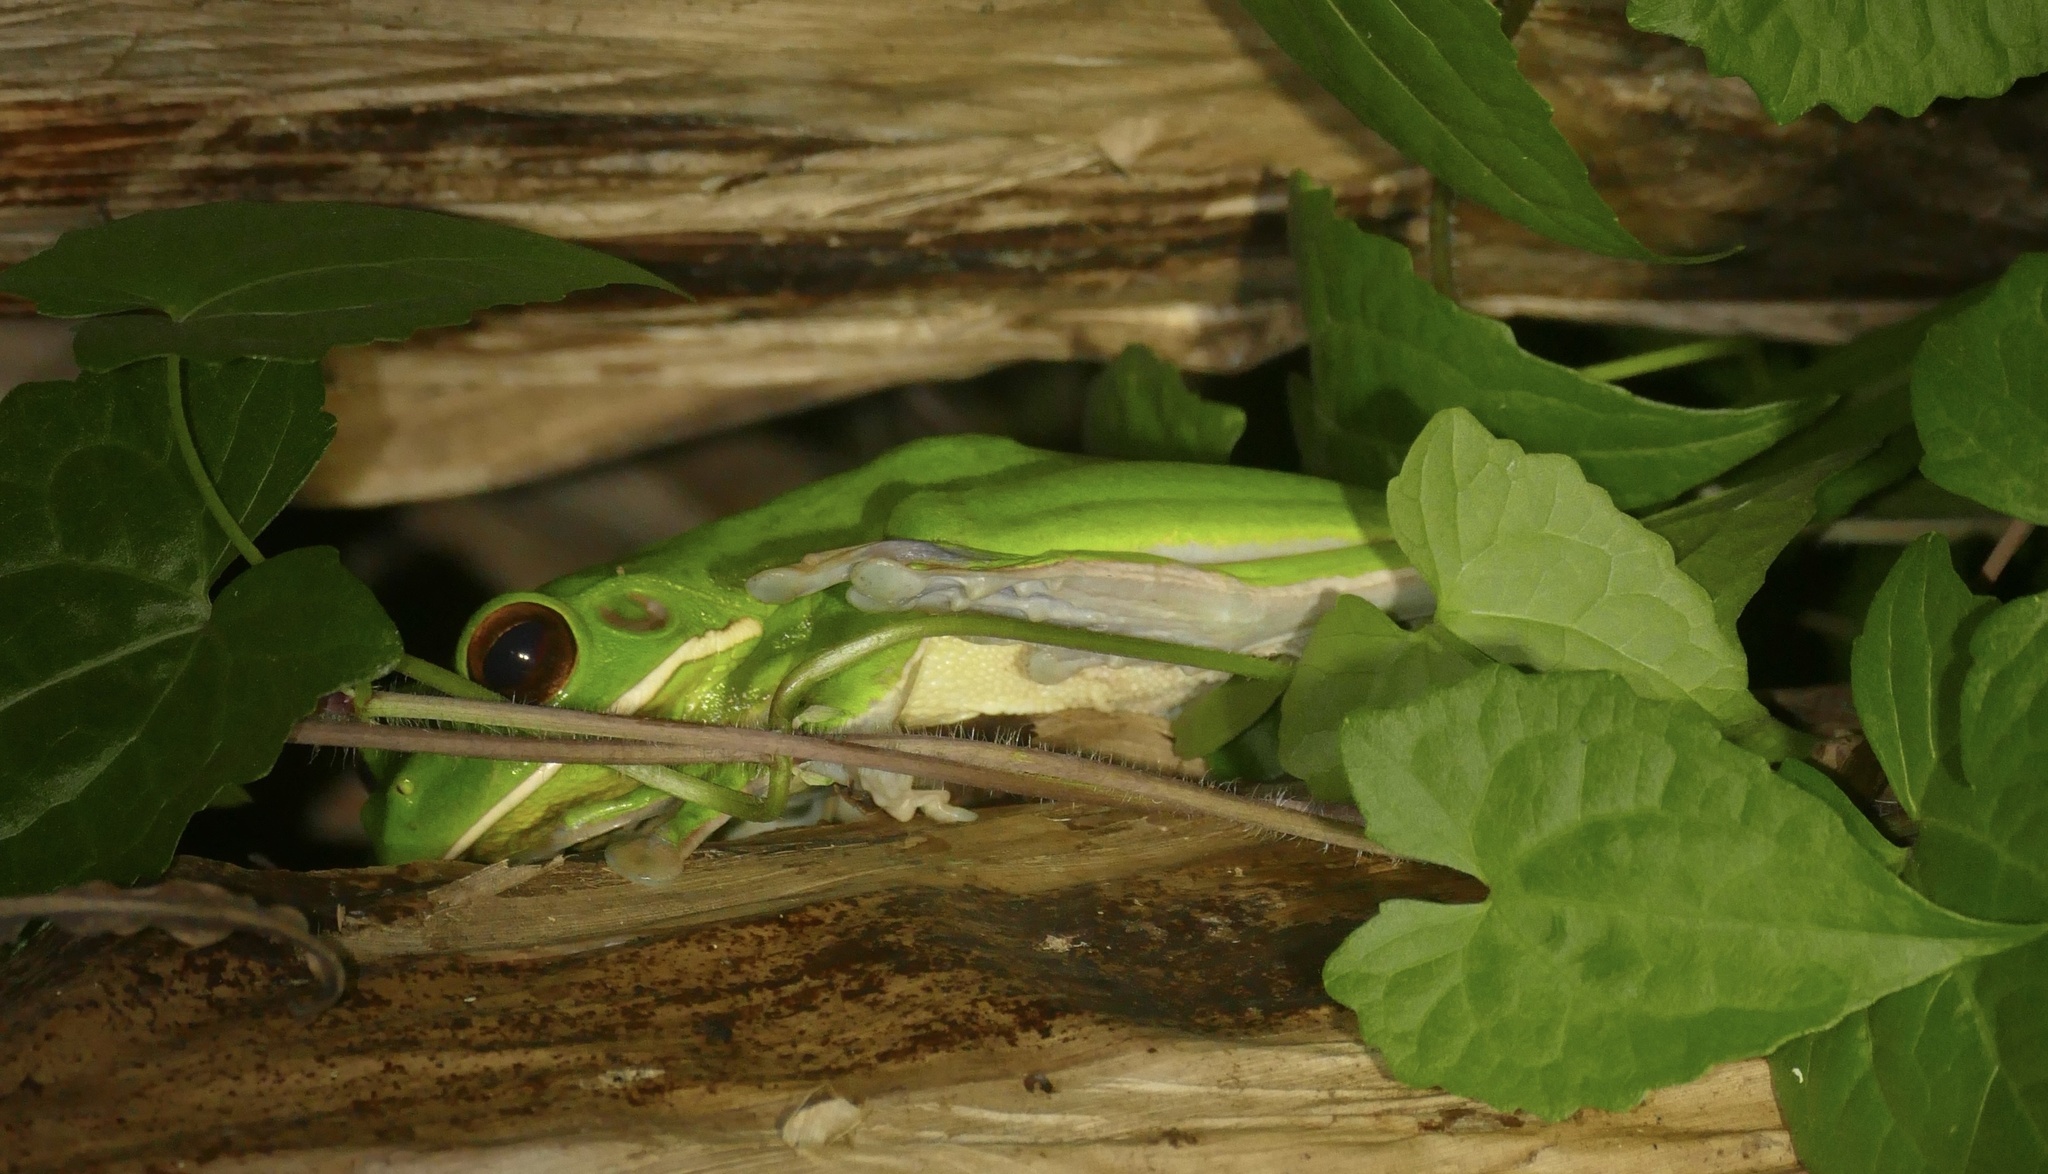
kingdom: Animalia
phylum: Chordata
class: Amphibia
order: Anura
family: Pelodryadidae
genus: Nyctimystes
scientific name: Nyctimystes infrafrenatus
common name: Australian giant treefrog
